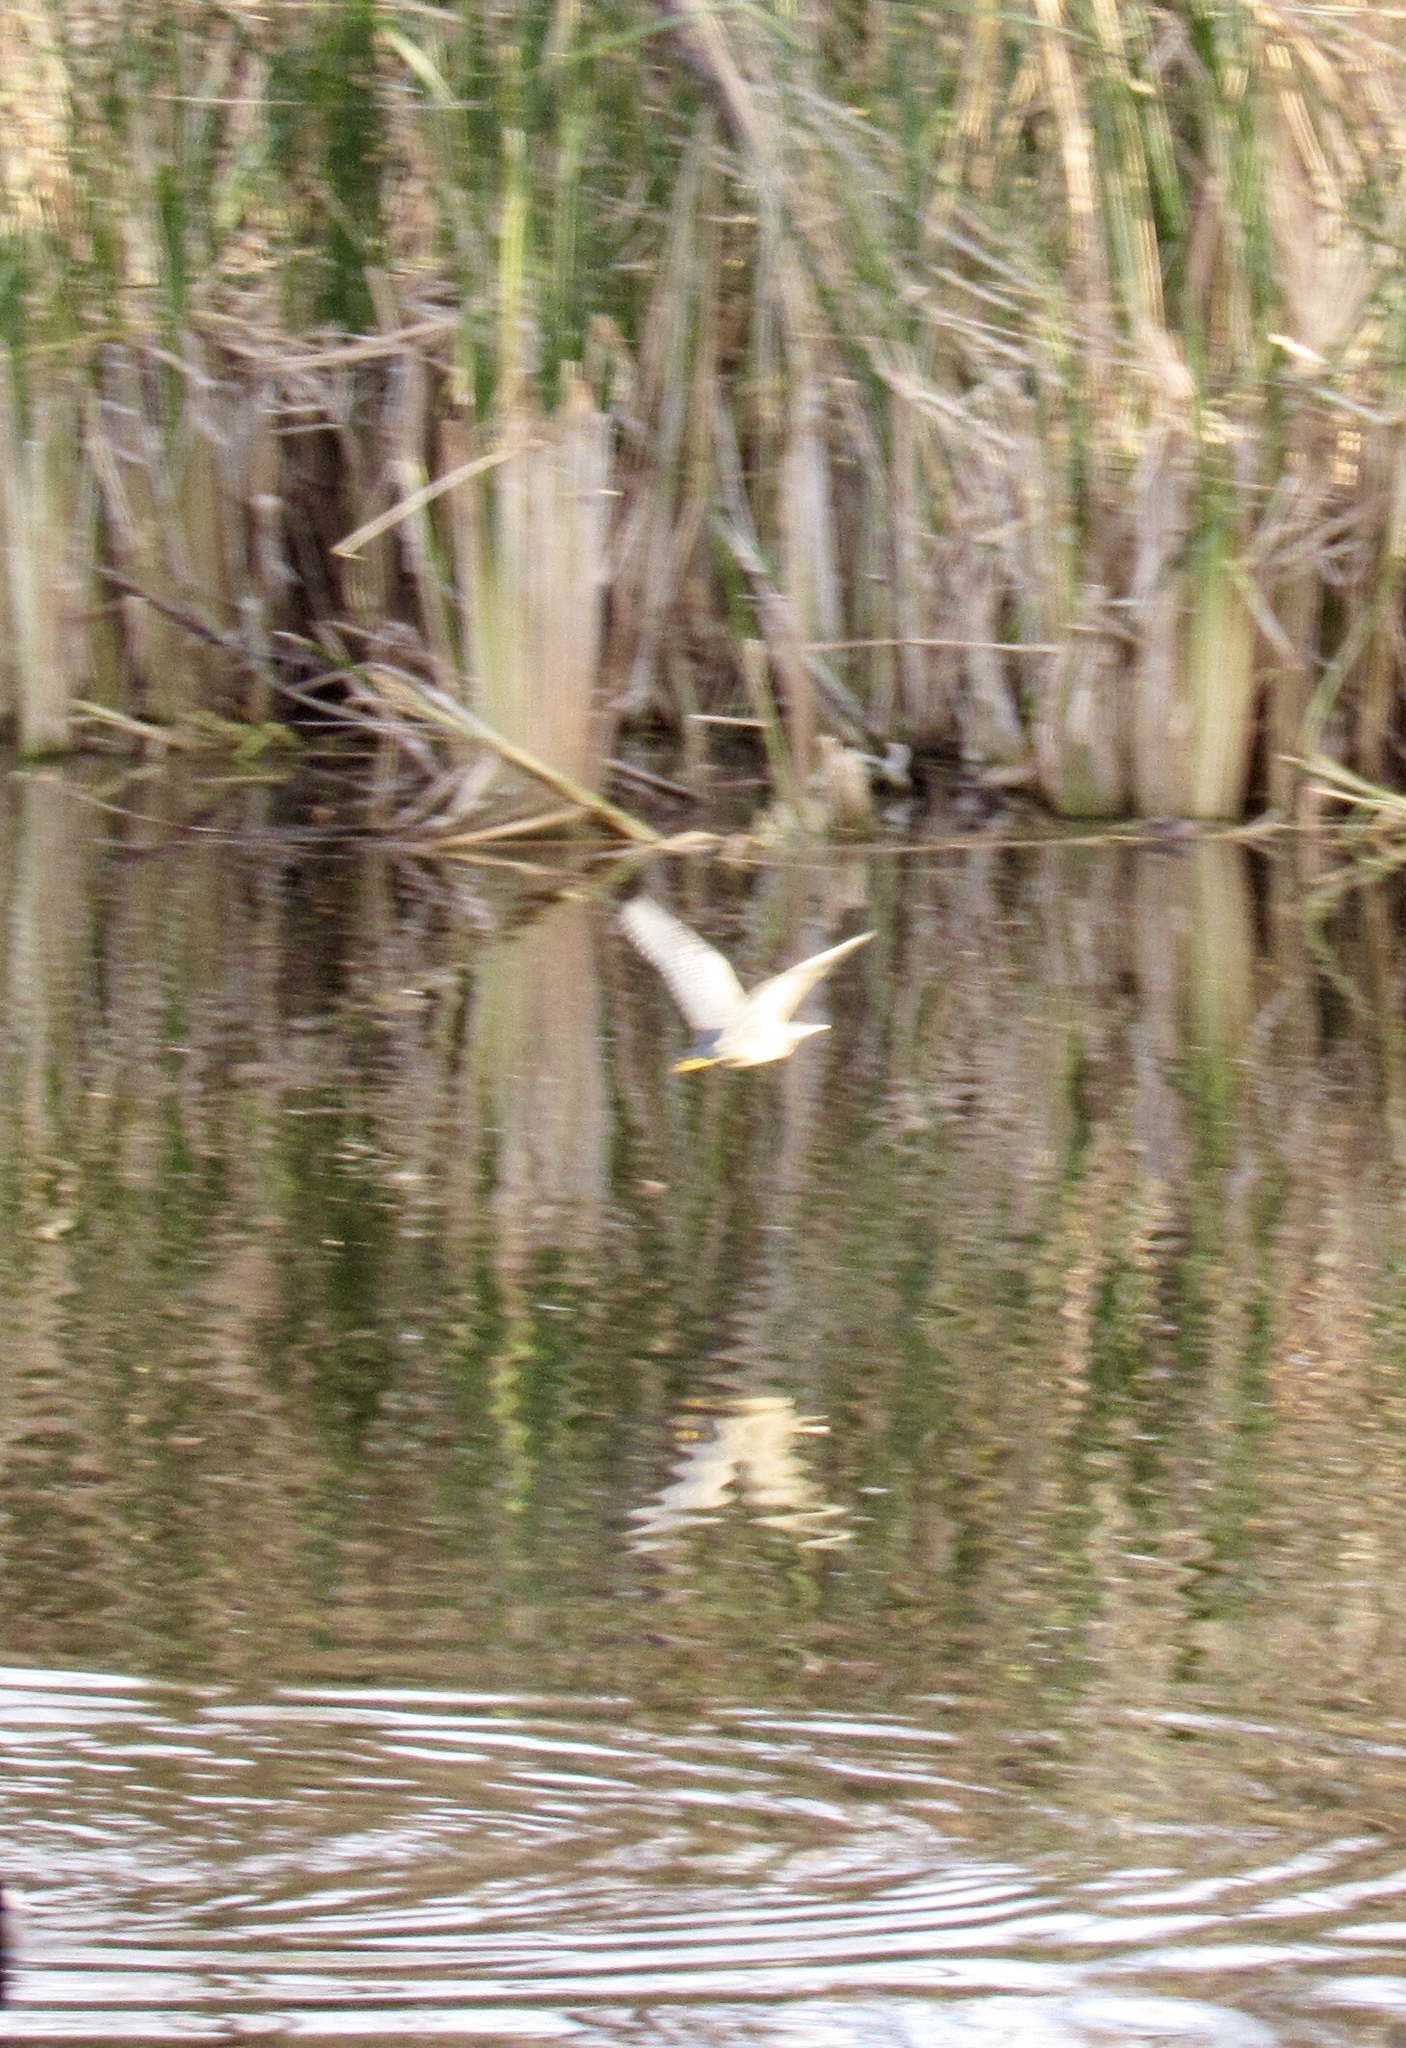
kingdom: Animalia
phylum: Chordata
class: Aves
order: Pelecaniformes
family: Ardeidae
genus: Butorides
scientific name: Butorides virescens
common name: Green heron
